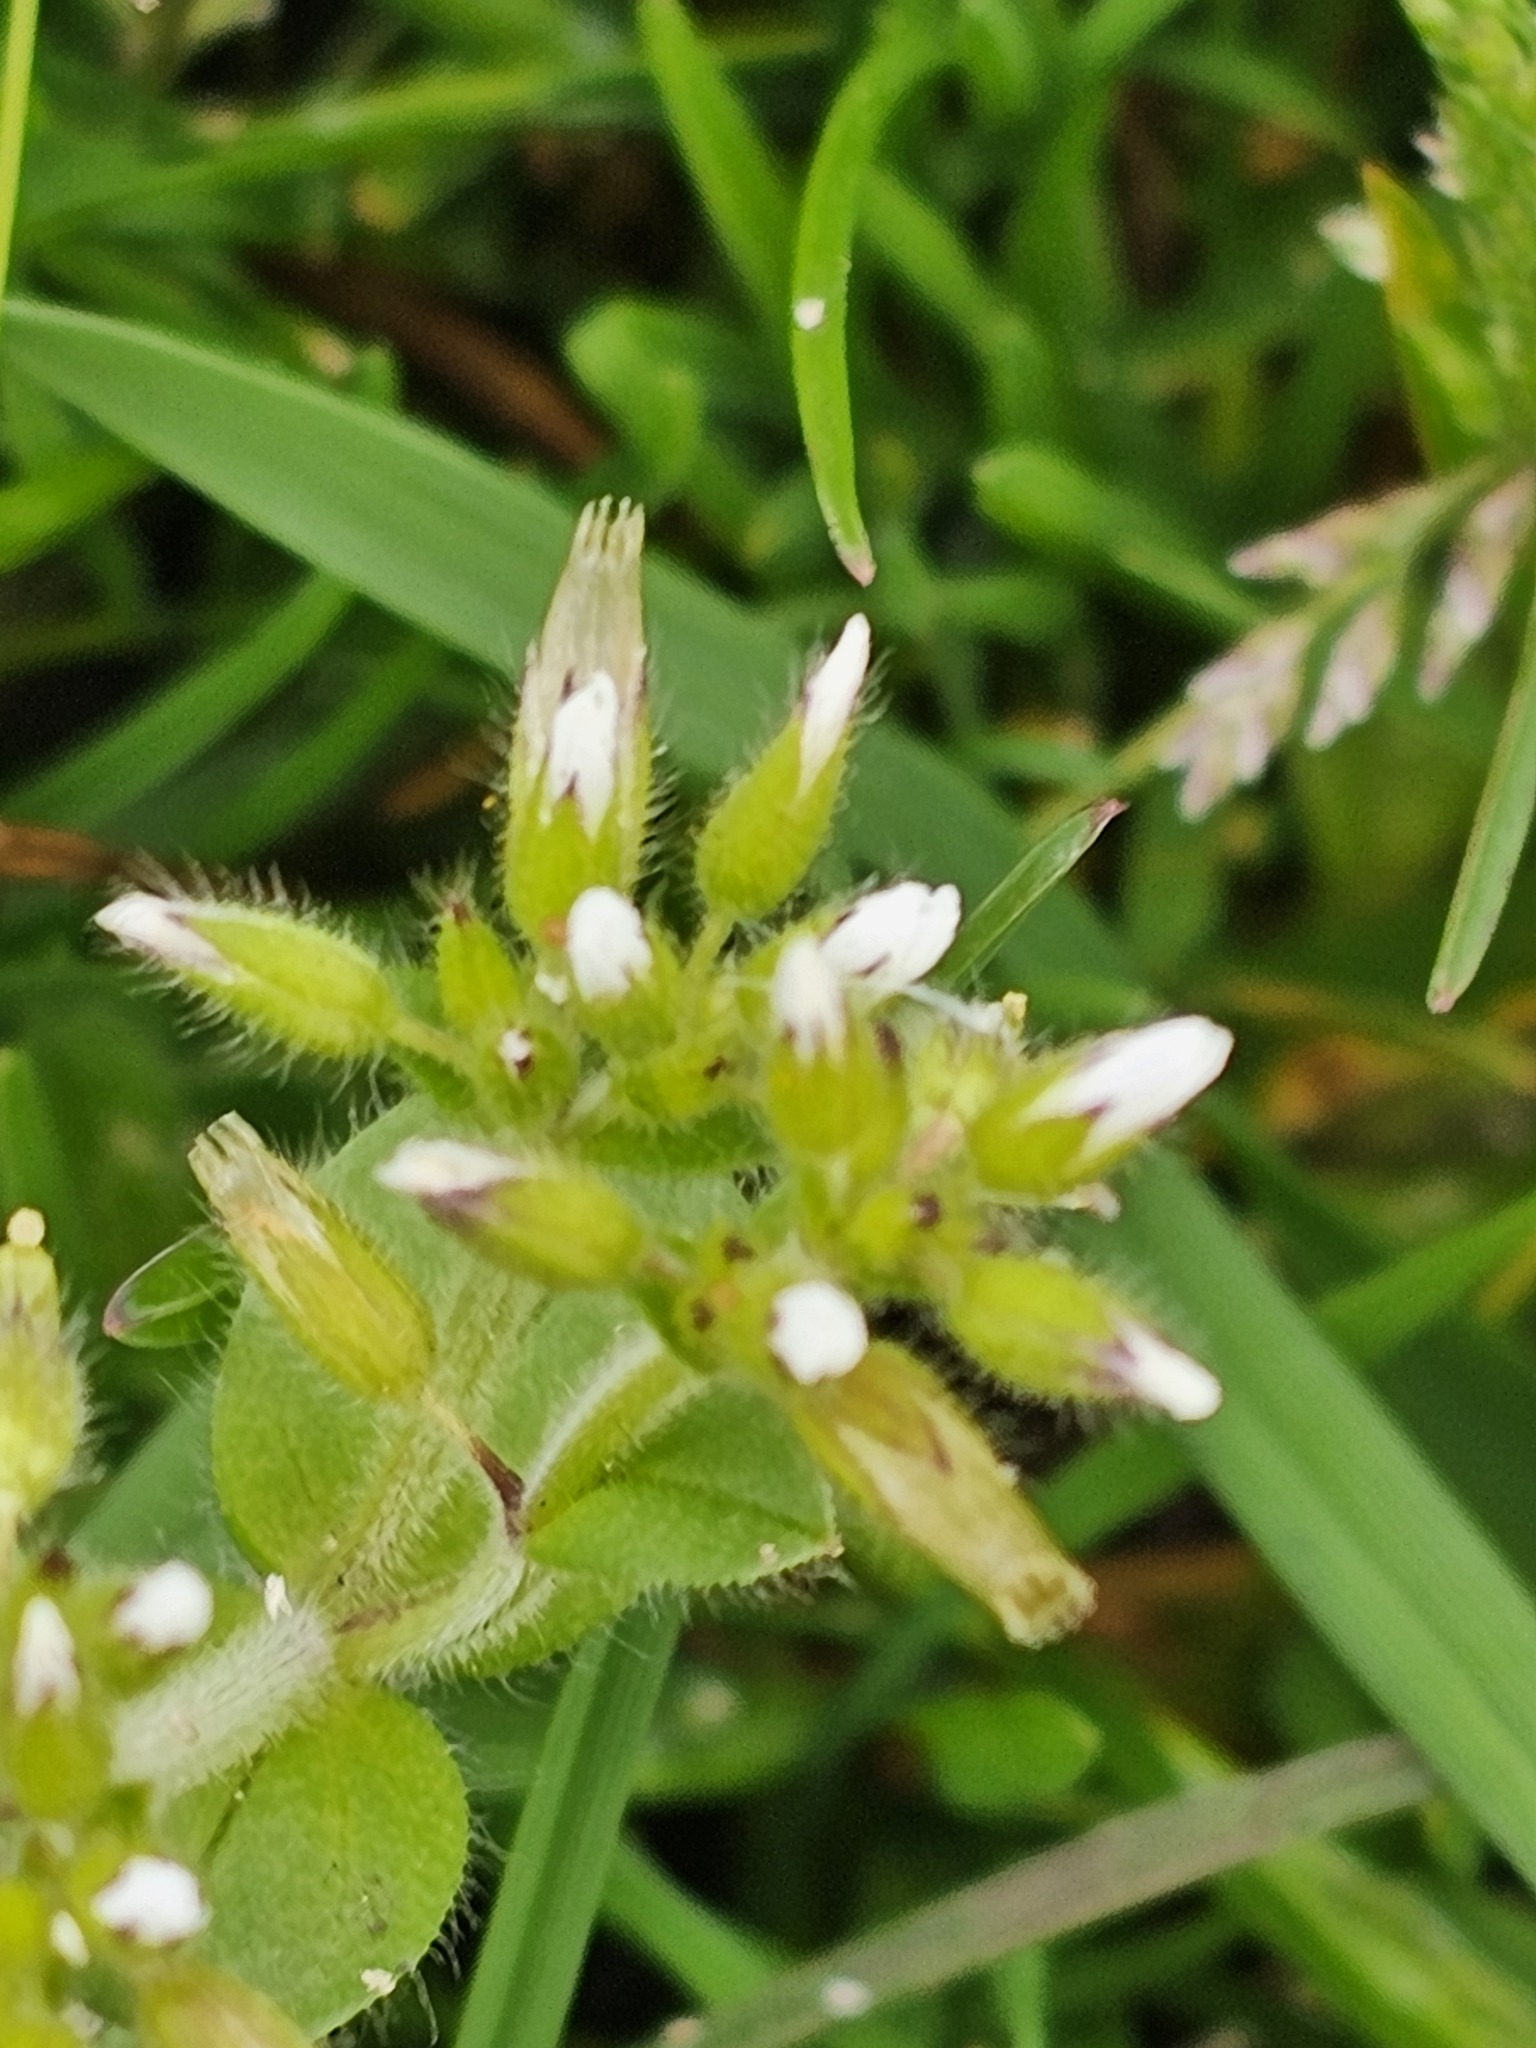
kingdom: Plantae
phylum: Tracheophyta
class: Magnoliopsida
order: Caryophyllales
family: Caryophyllaceae
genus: Cerastium
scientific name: Cerastium glomeratum
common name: Sticky chickweed
